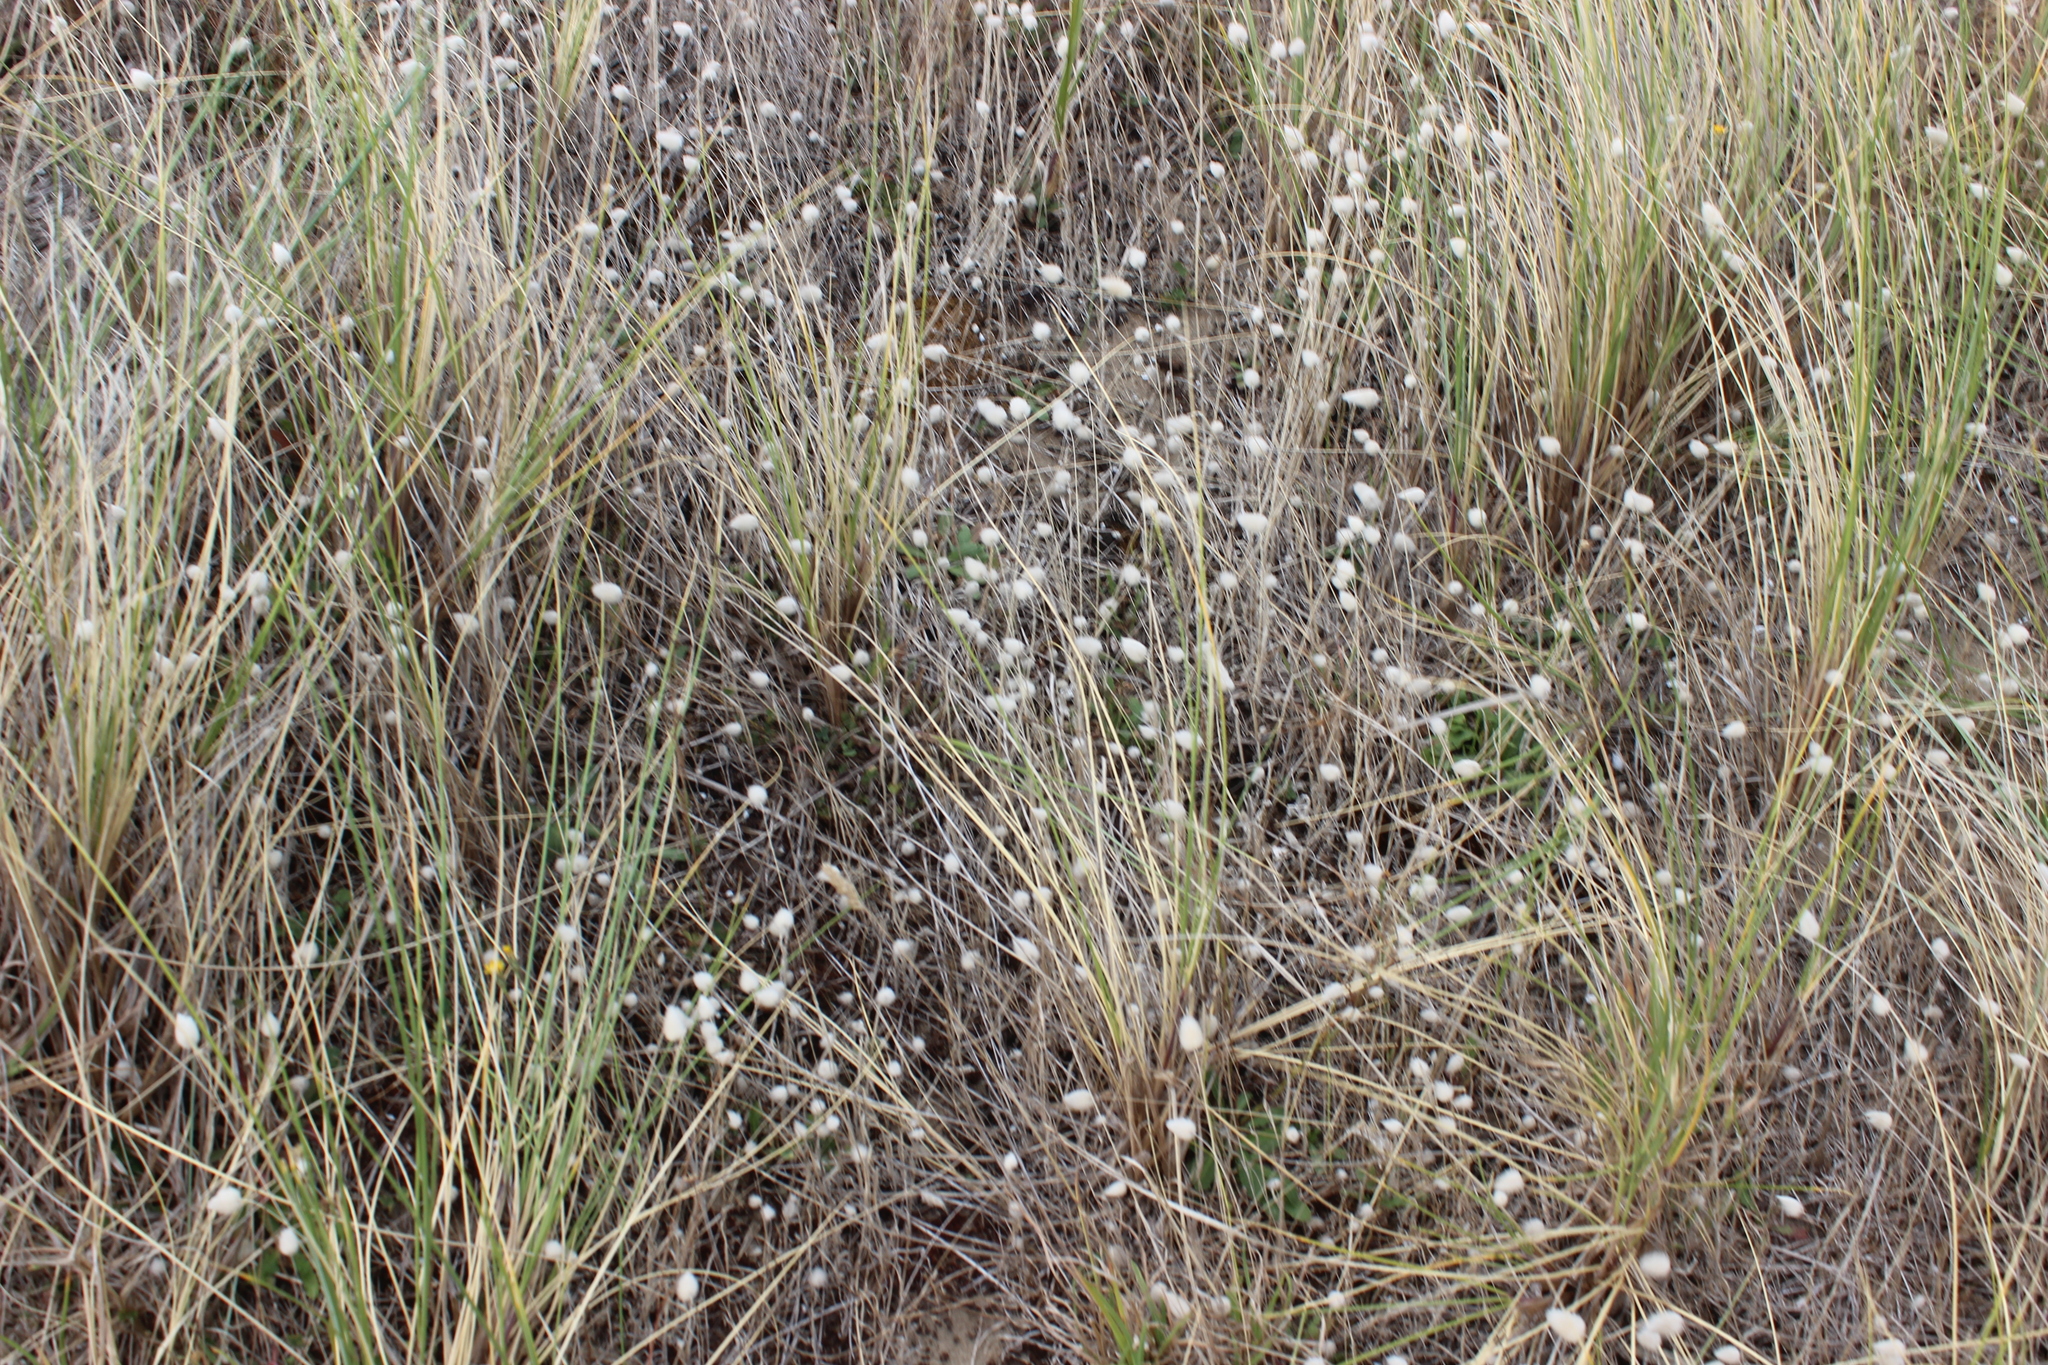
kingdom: Plantae
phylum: Tracheophyta
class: Liliopsida
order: Poales
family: Poaceae
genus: Lagurus
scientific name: Lagurus ovatus
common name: Hare's-tail
